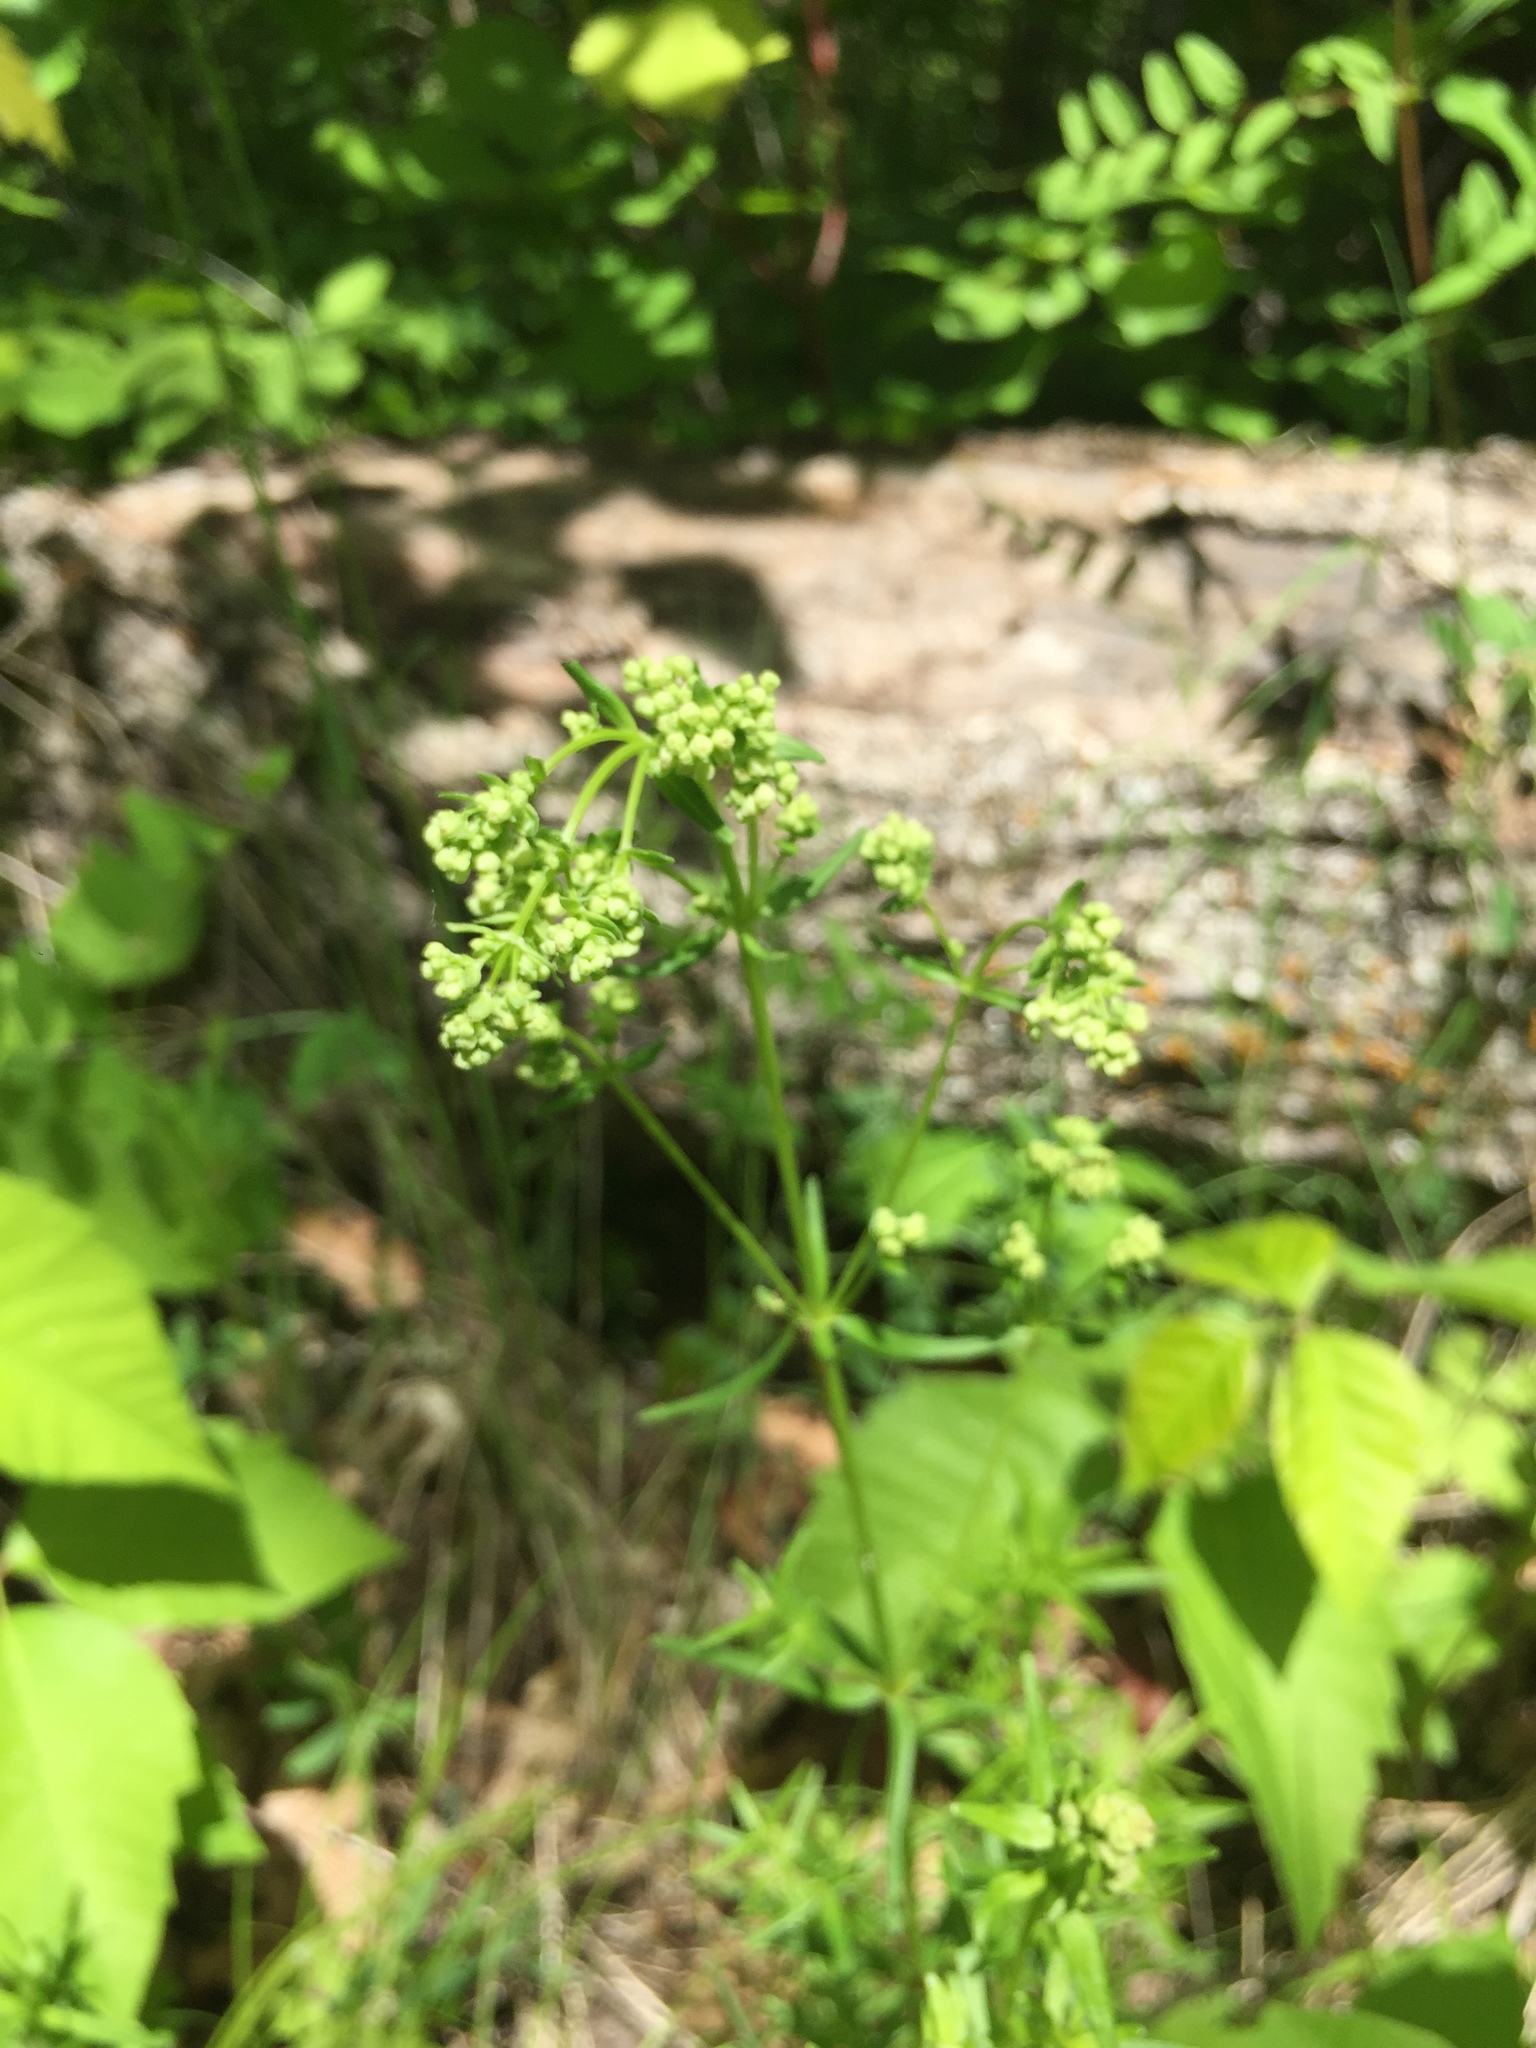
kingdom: Plantae
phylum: Tracheophyta
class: Magnoliopsida
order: Gentianales
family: Rubiaceae
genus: Galium
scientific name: Galium boreale
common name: Northern bedstraw
